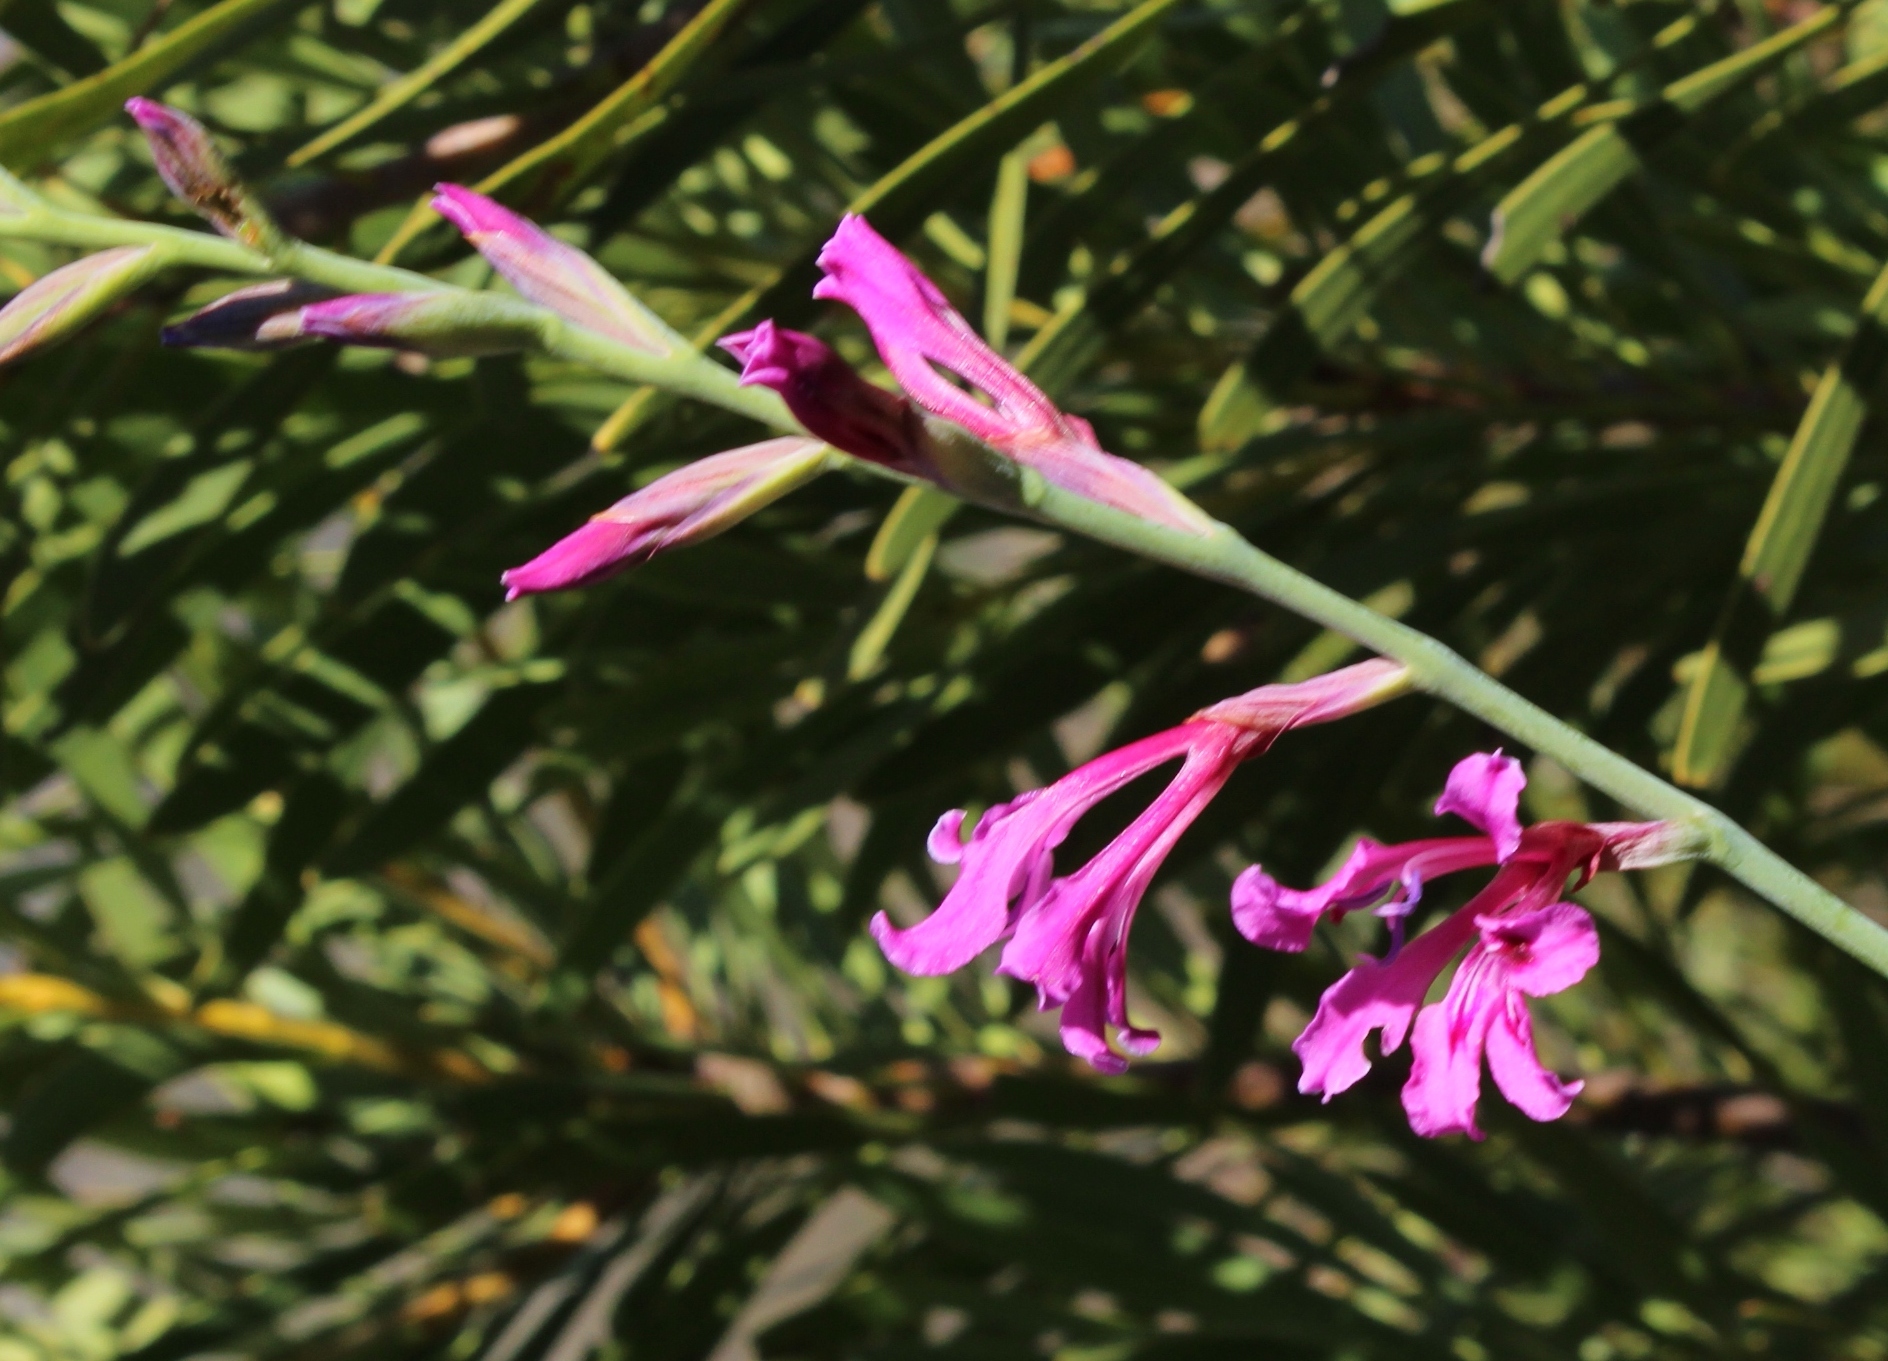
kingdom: Plantae
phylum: Tracheophyta
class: Liliopsida
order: Asparagales
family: Iridaceae
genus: Tritoniopsis
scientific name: Tritoniopsis lata
